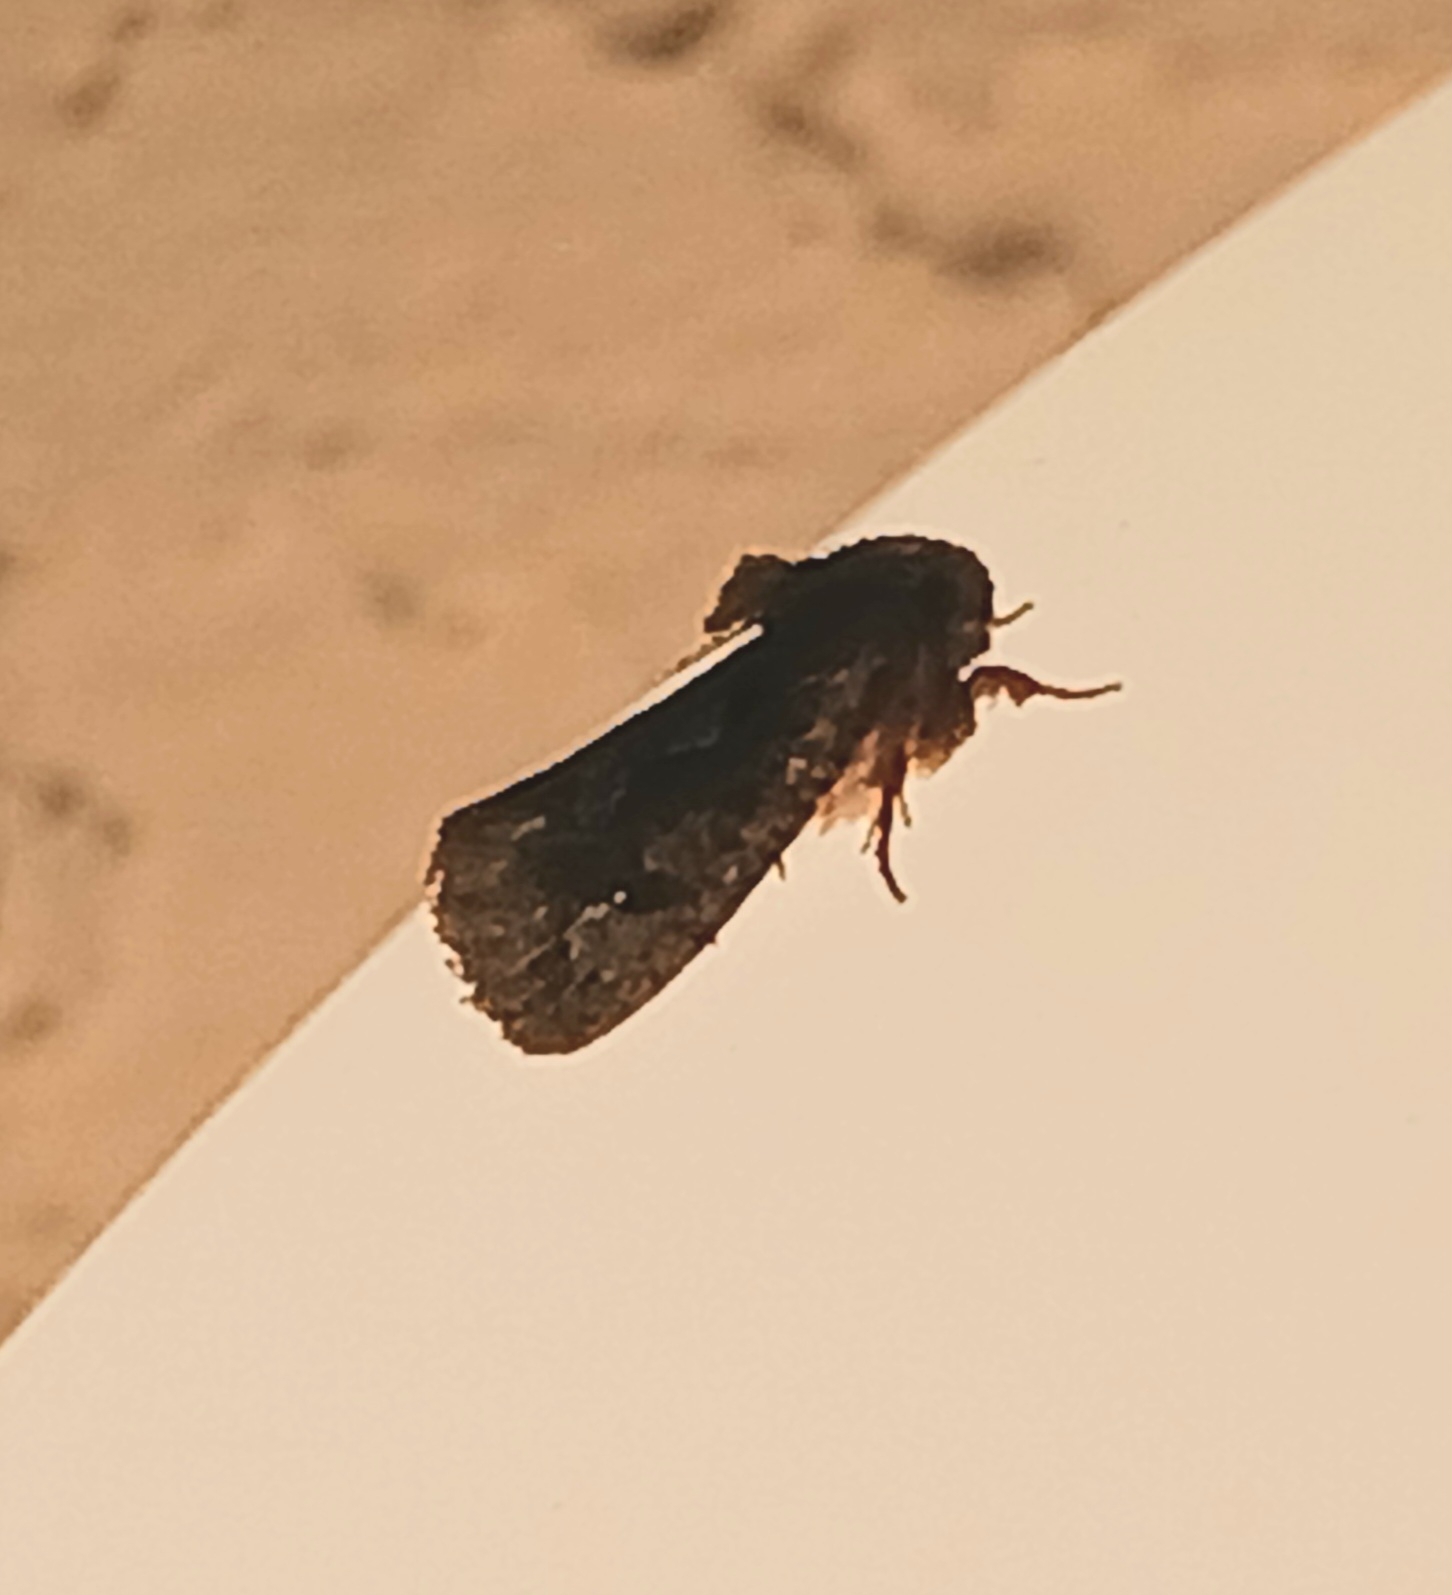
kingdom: Animalia
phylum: Arthropoda
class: Insecta
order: Lepidoptera
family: Tineidae
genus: Acrolophus
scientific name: Acrolophus walsinghami
